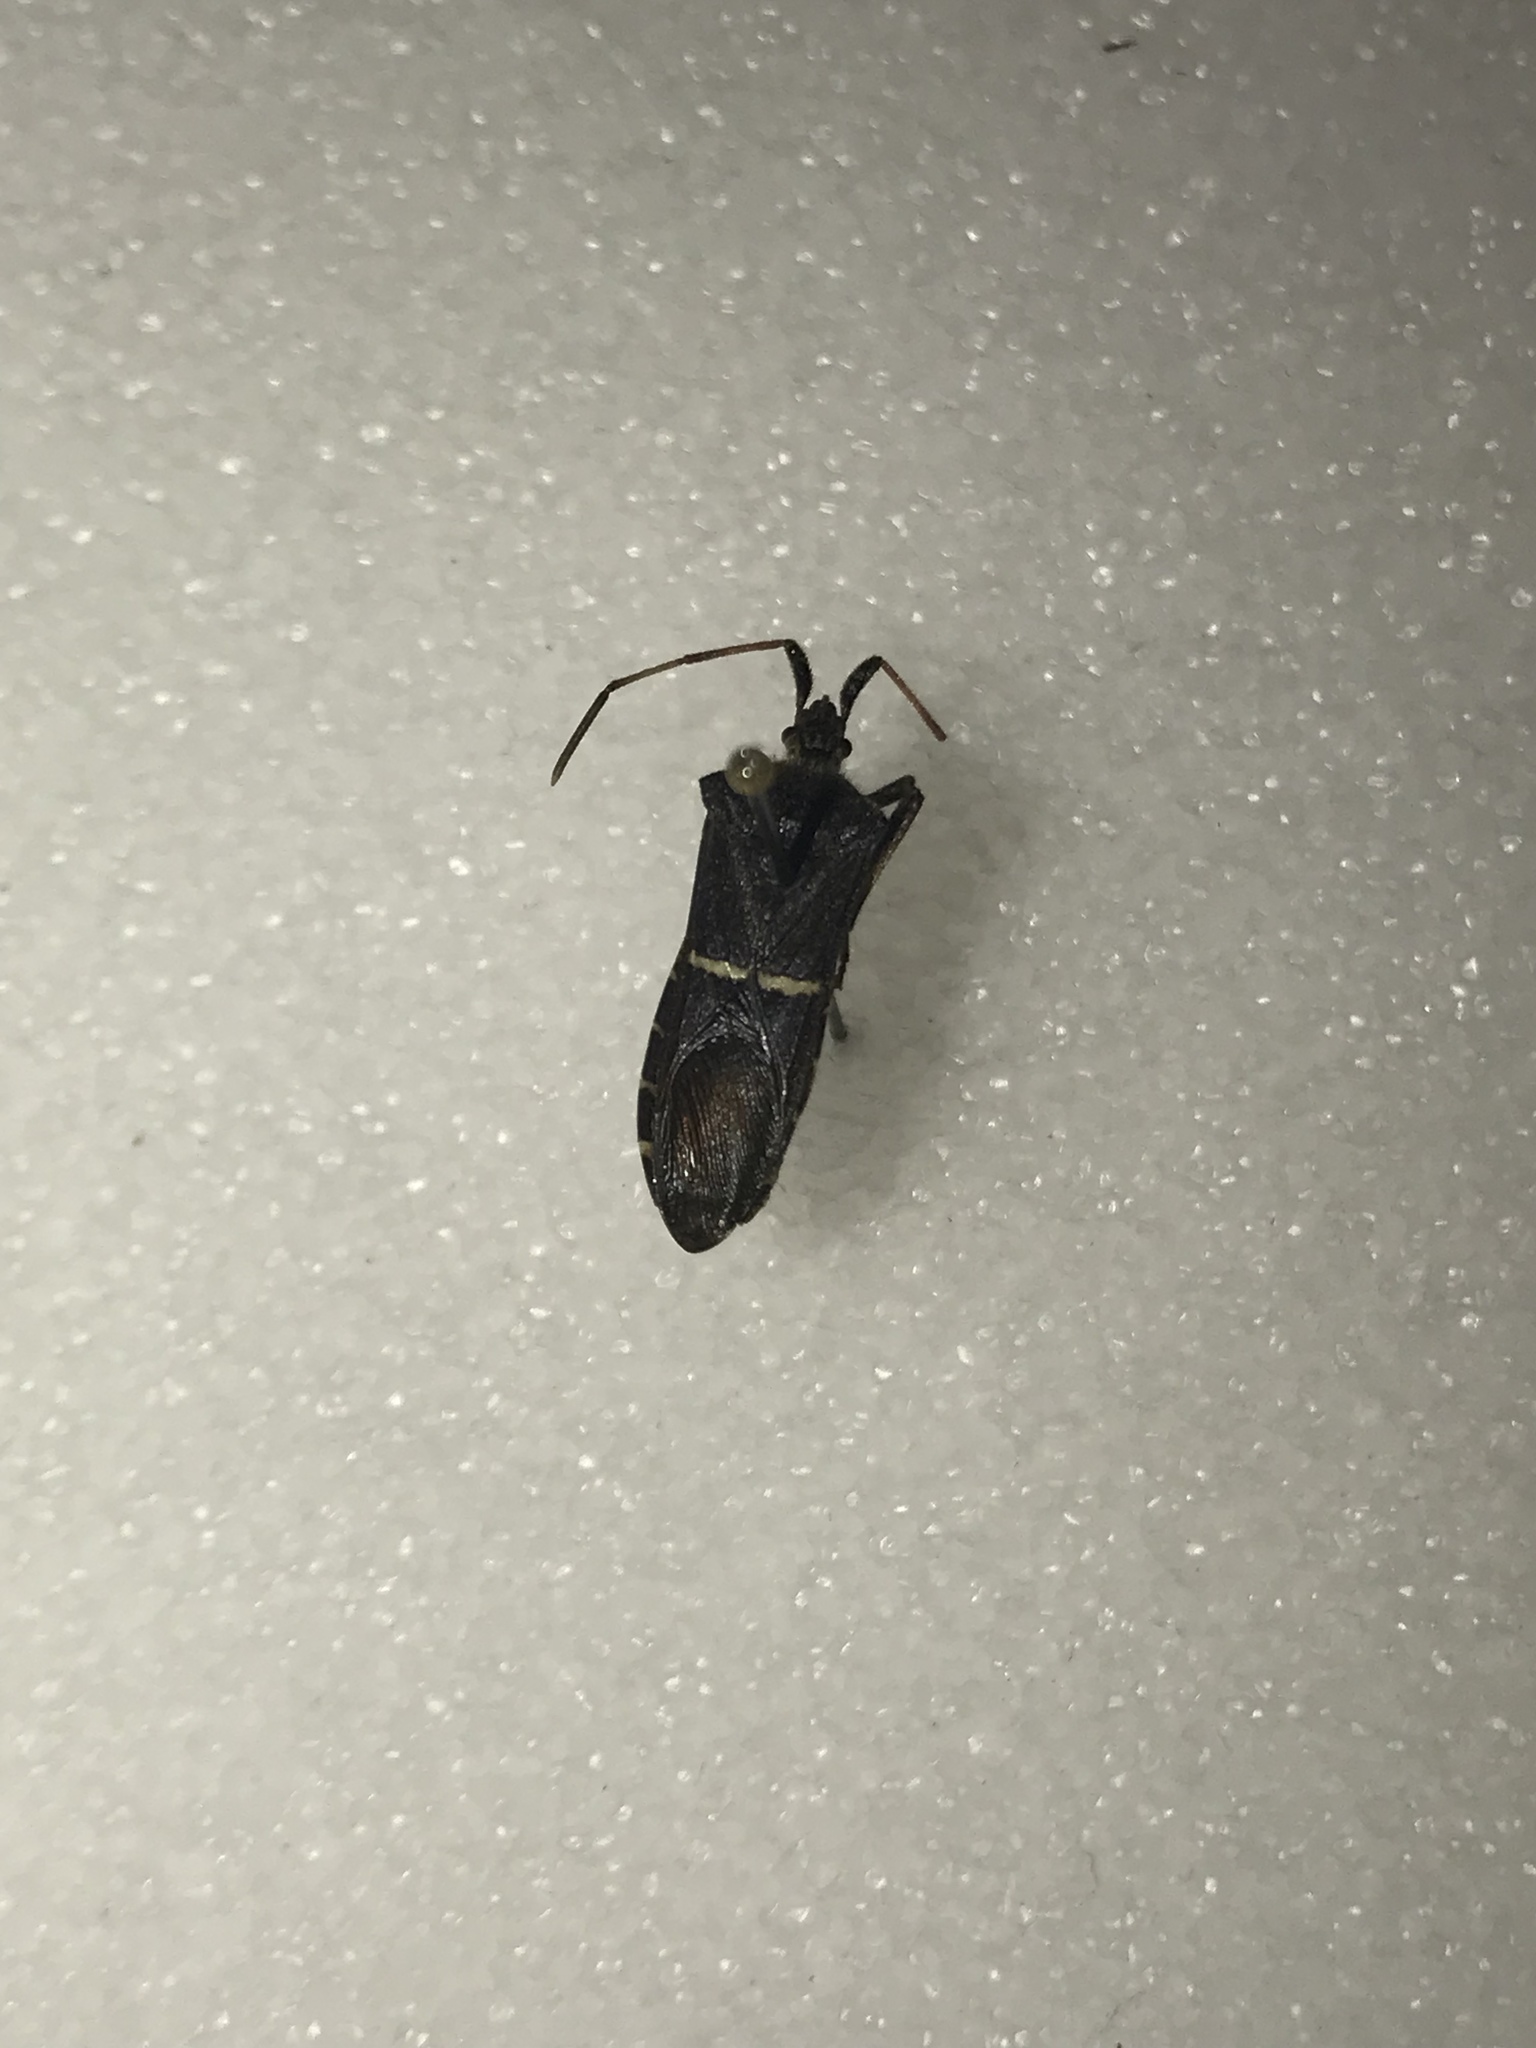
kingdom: Animalia
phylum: Arthropoda
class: Insecta
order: Hemiptera
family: Coreidae
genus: Leptoglossus
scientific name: Leptoglossus phyllopus
